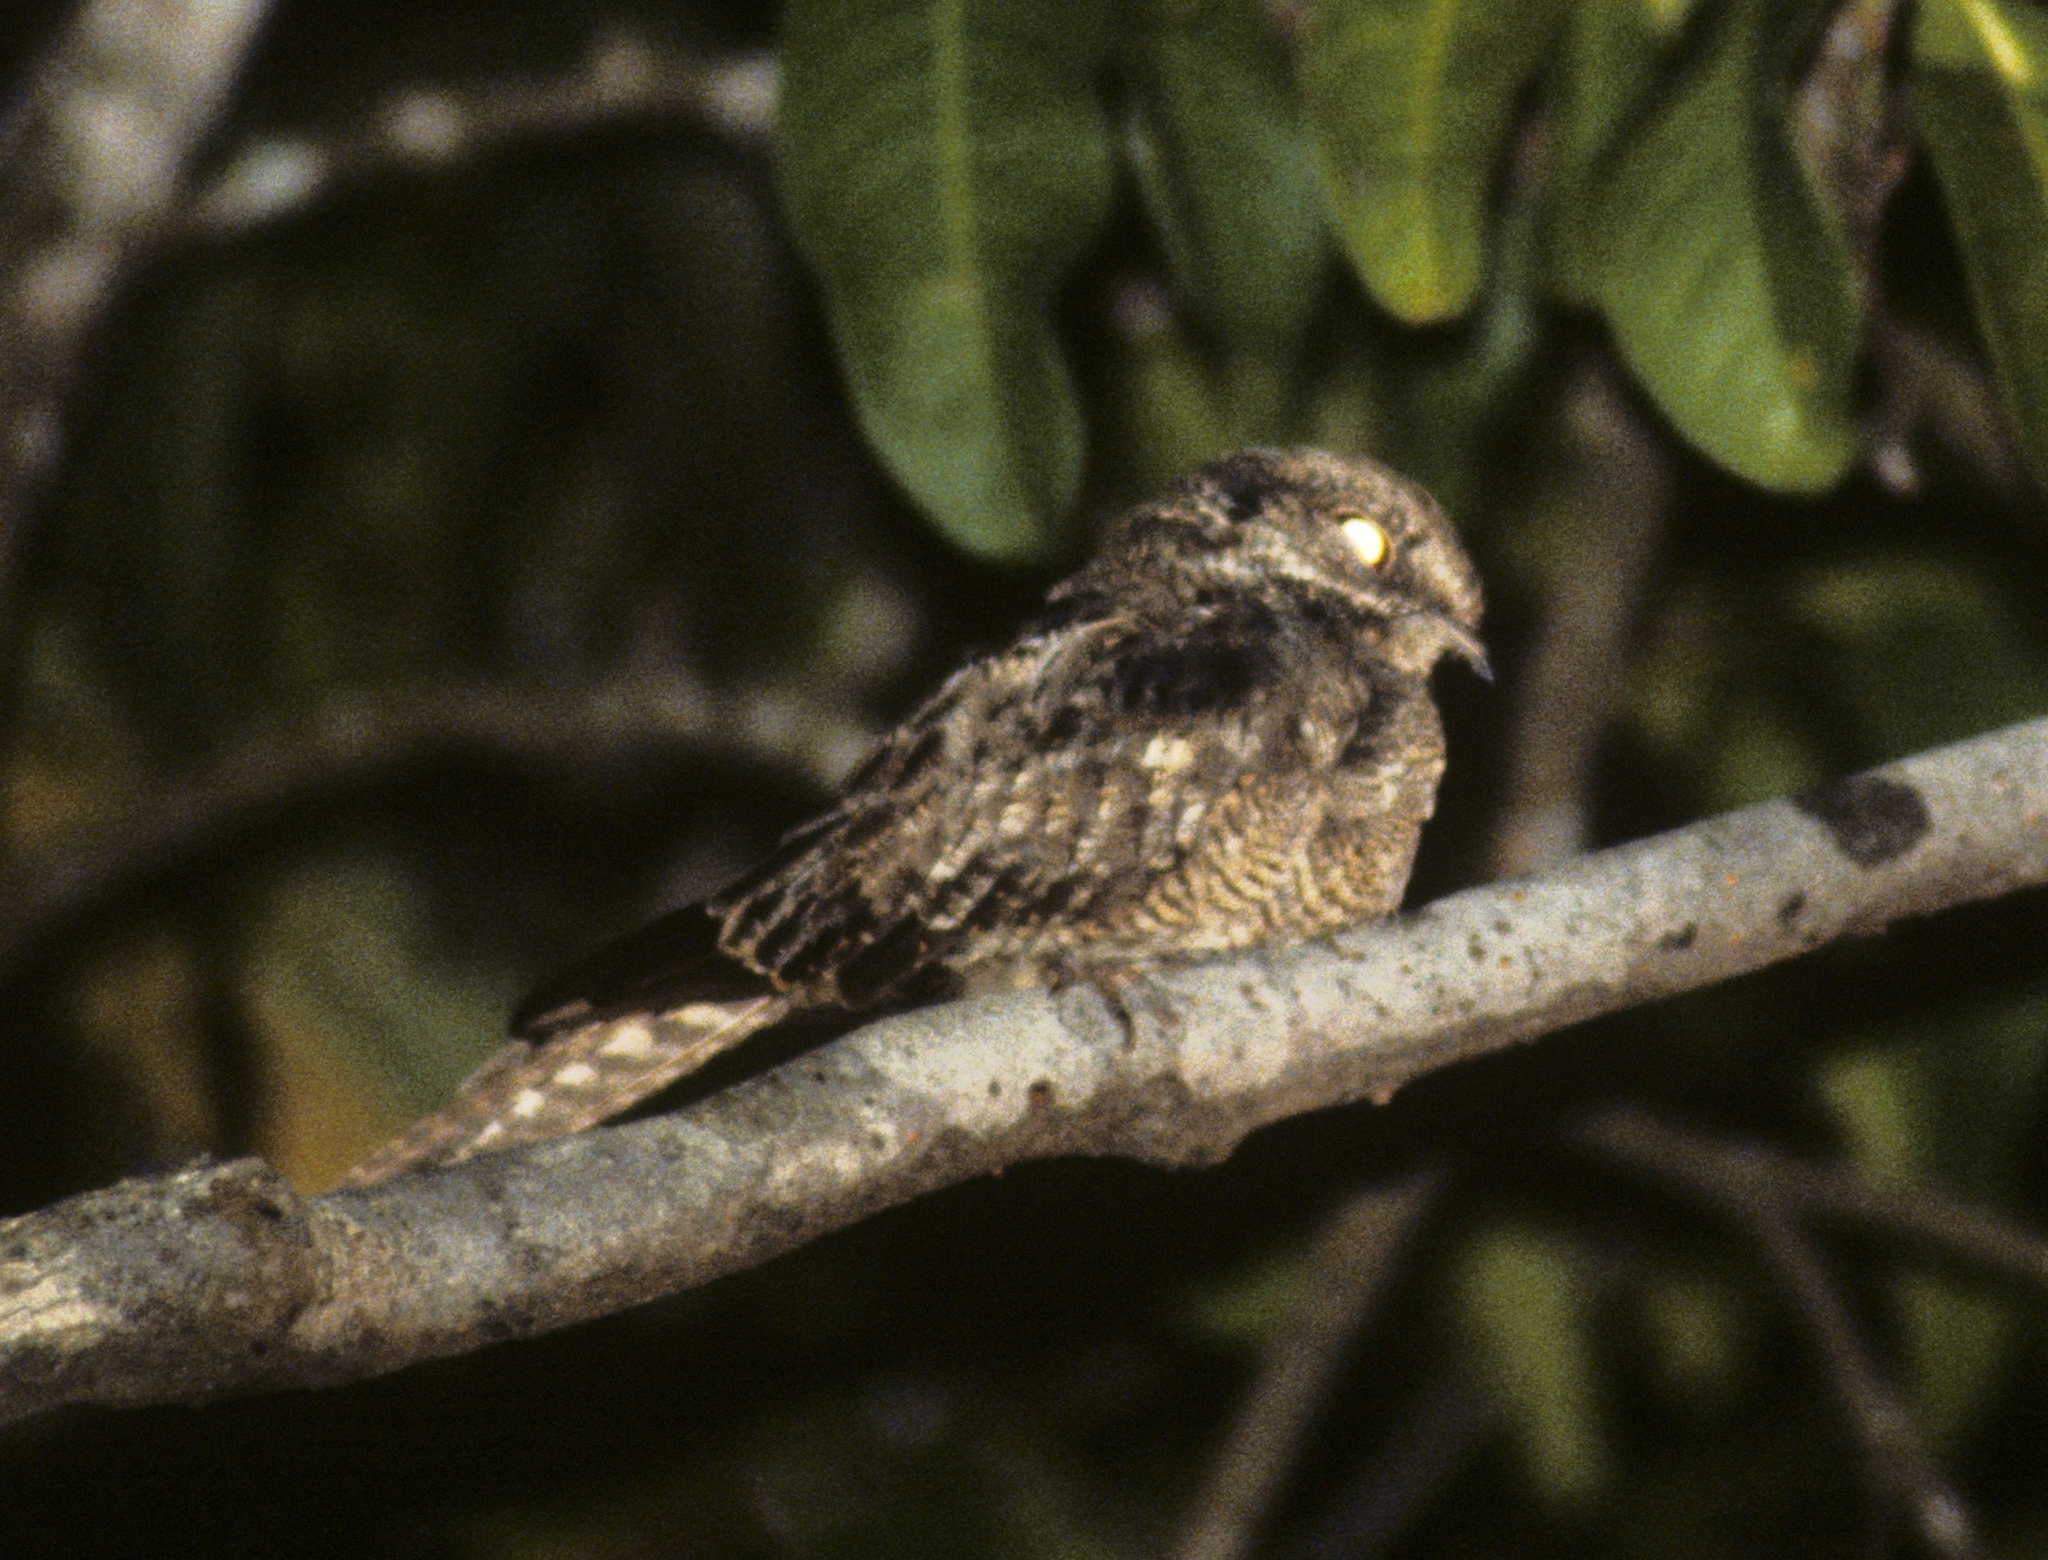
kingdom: Animalia
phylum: Chordata
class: Aves
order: Caprimulgiformes
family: Caprimulgidae
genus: Hydropsalis
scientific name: Hydropsalis climacocerca
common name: Ladder-tailed nightjar
